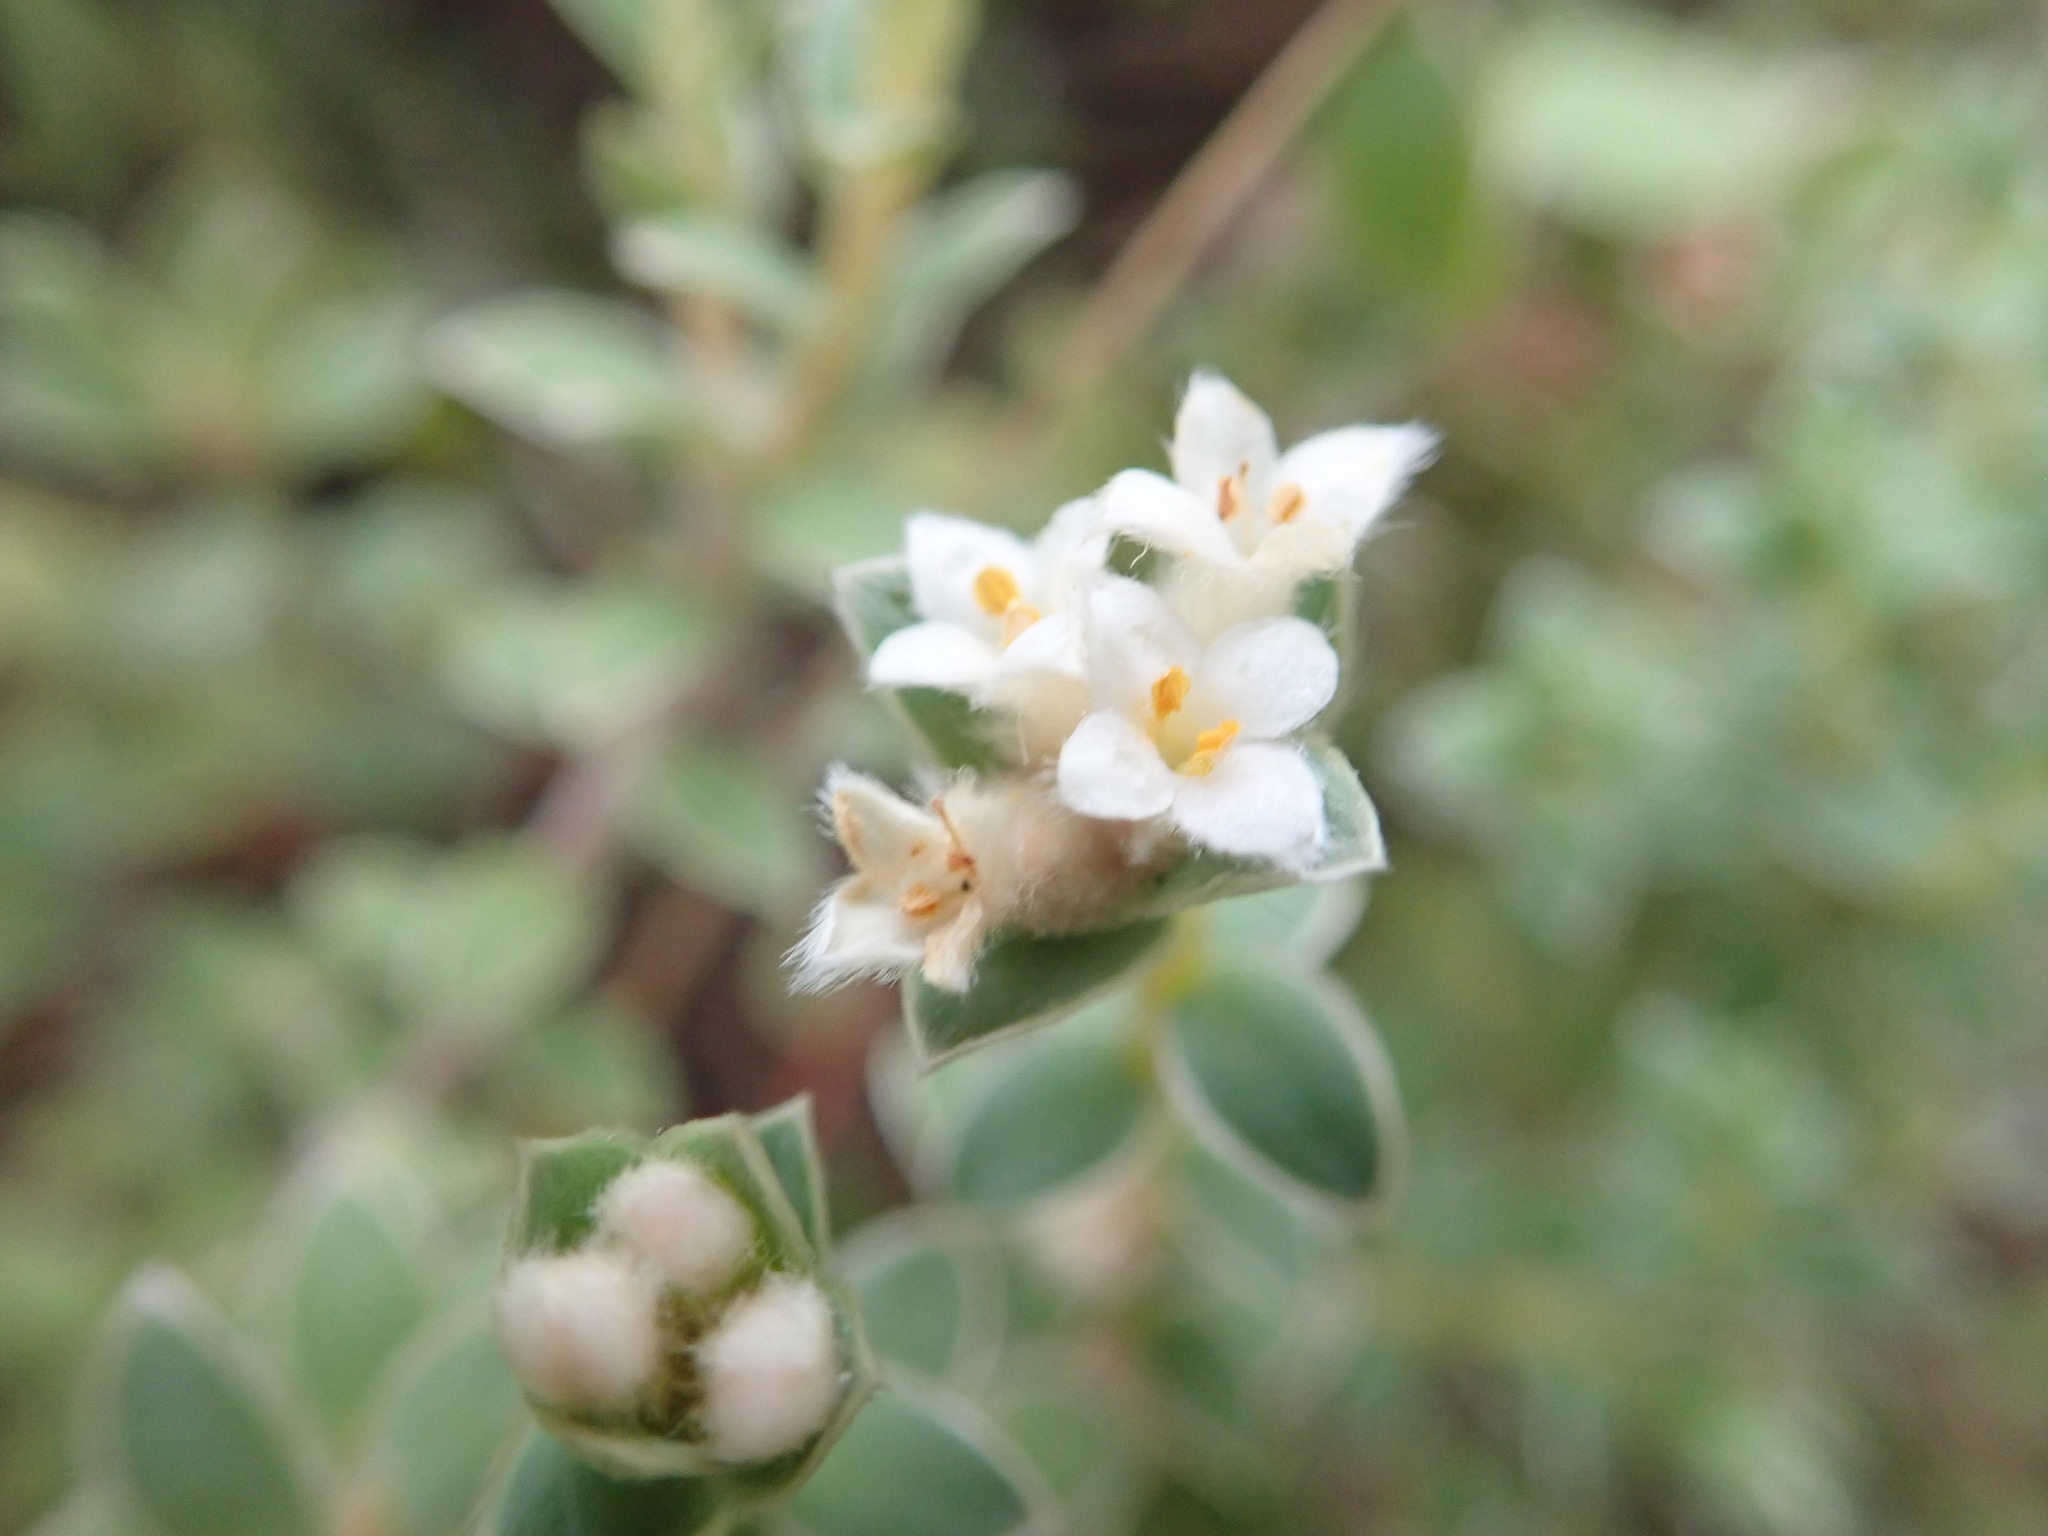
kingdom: Plantae
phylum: Tracheophyta
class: Magnoliopsida
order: Malvales
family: Thymelaeaceae
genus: Pimelea
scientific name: Pimelea villosa
